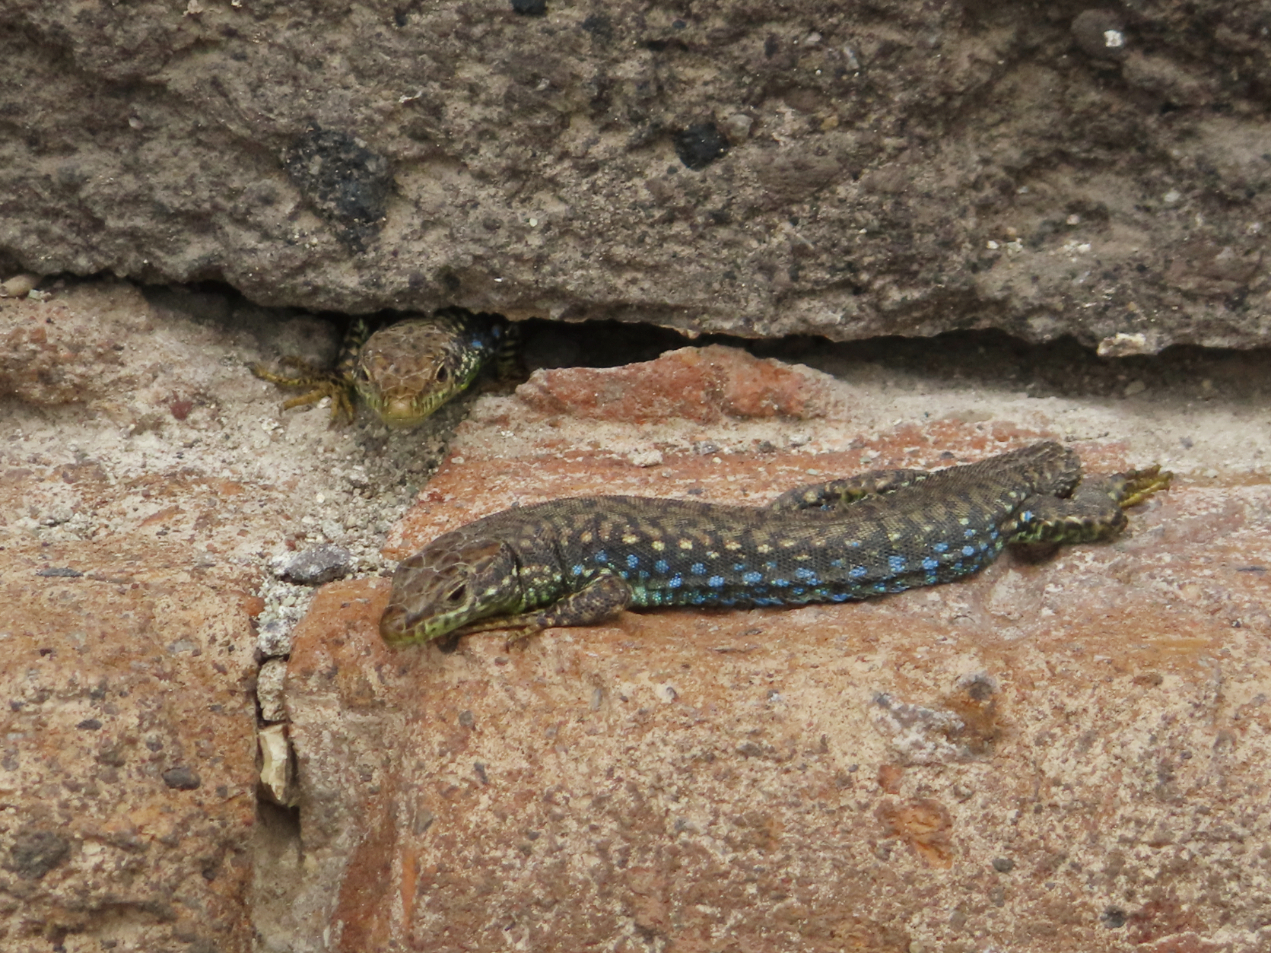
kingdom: Animalia
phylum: Chordata
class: Squamata
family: Lacertidae
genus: Darevskia
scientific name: Darevskia
